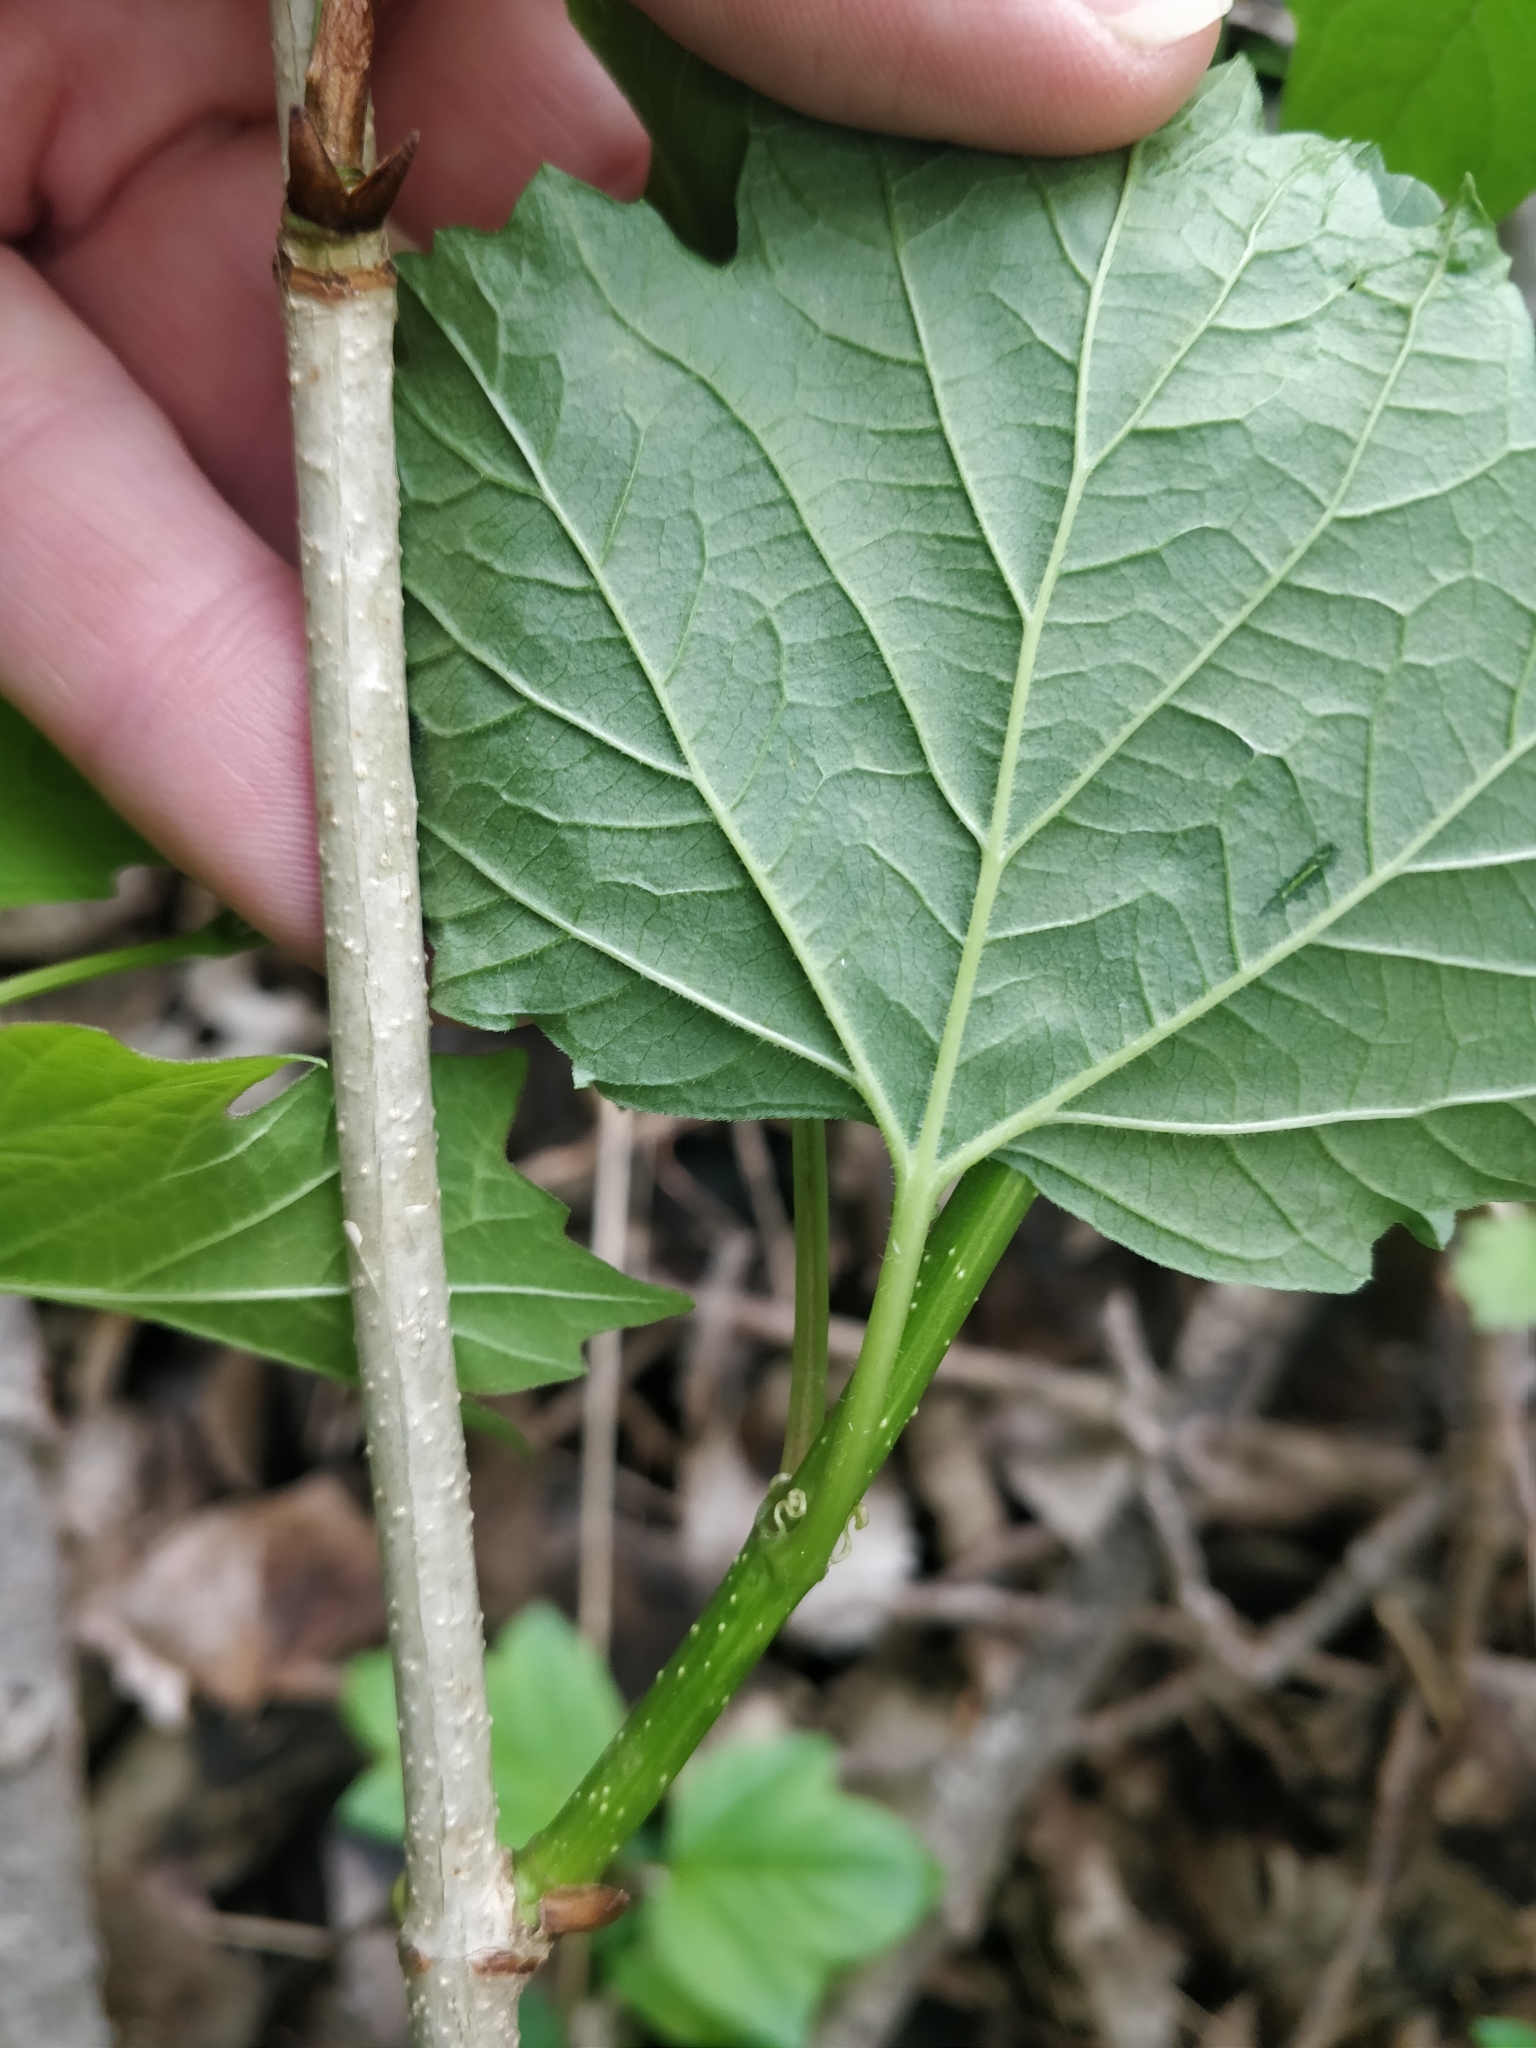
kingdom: Plantae
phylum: Tracheophyta
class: Magnoliopsida
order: Dipsacales
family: Viburnaceae
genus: Viburnum
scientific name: Viburnum opulus
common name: Guelder-rose
